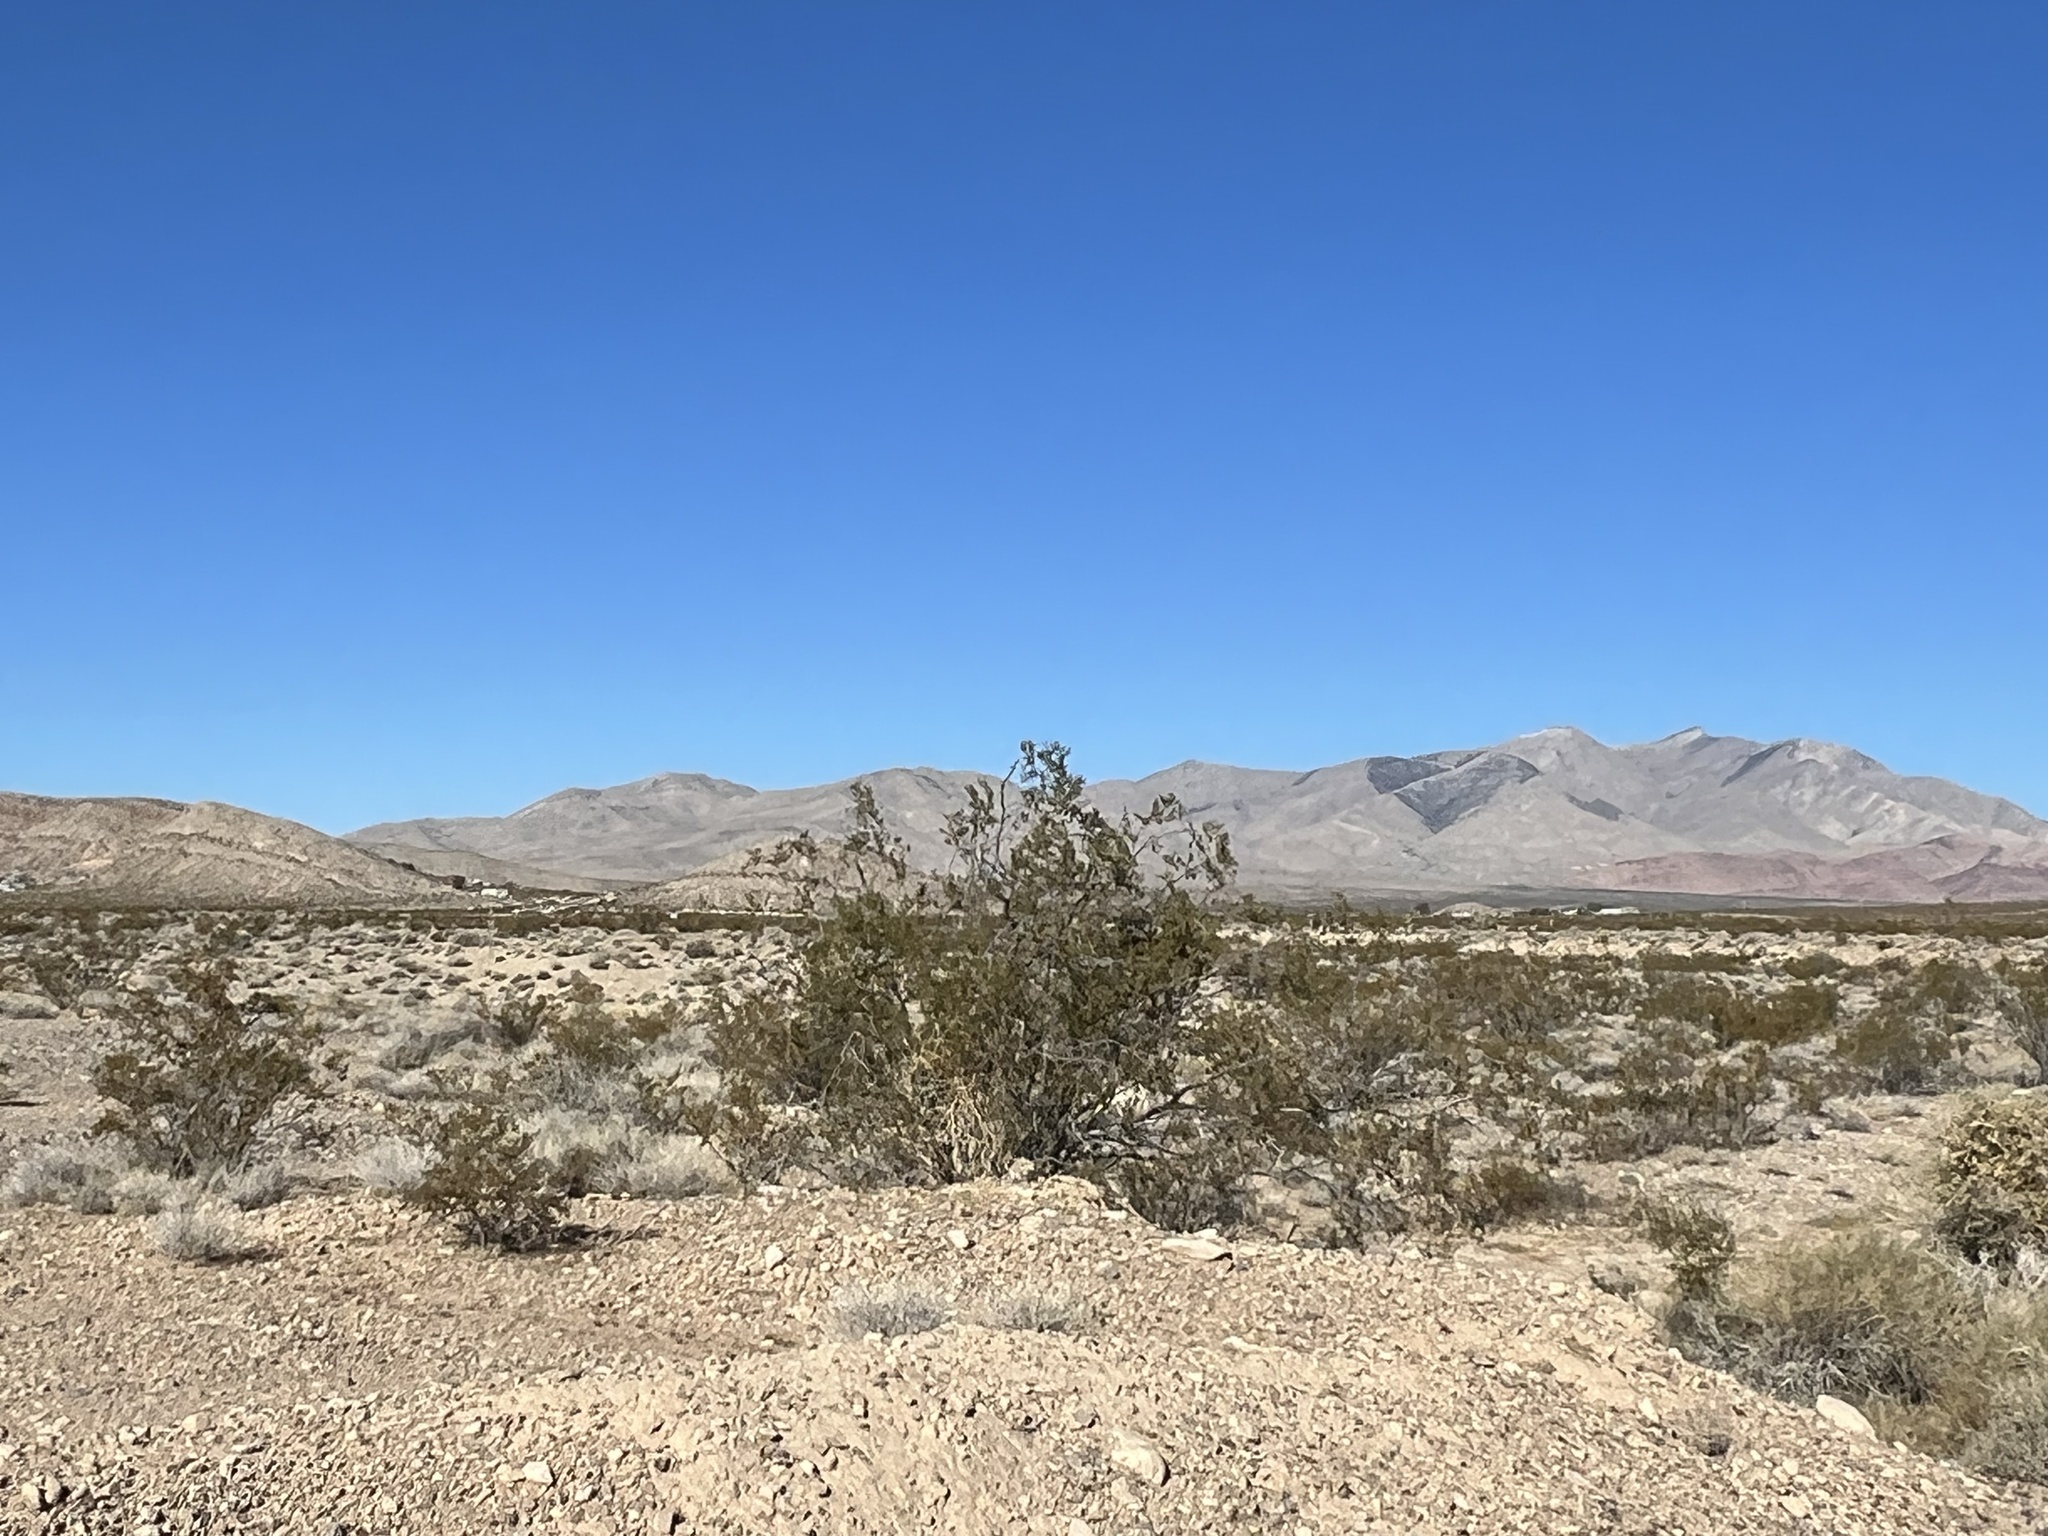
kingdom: Plantae
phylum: Tracheophyta
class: Magnoliopsida
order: Zygophyllales
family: Zygophyllaceae
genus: Larrea
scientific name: Larrea tridentata
